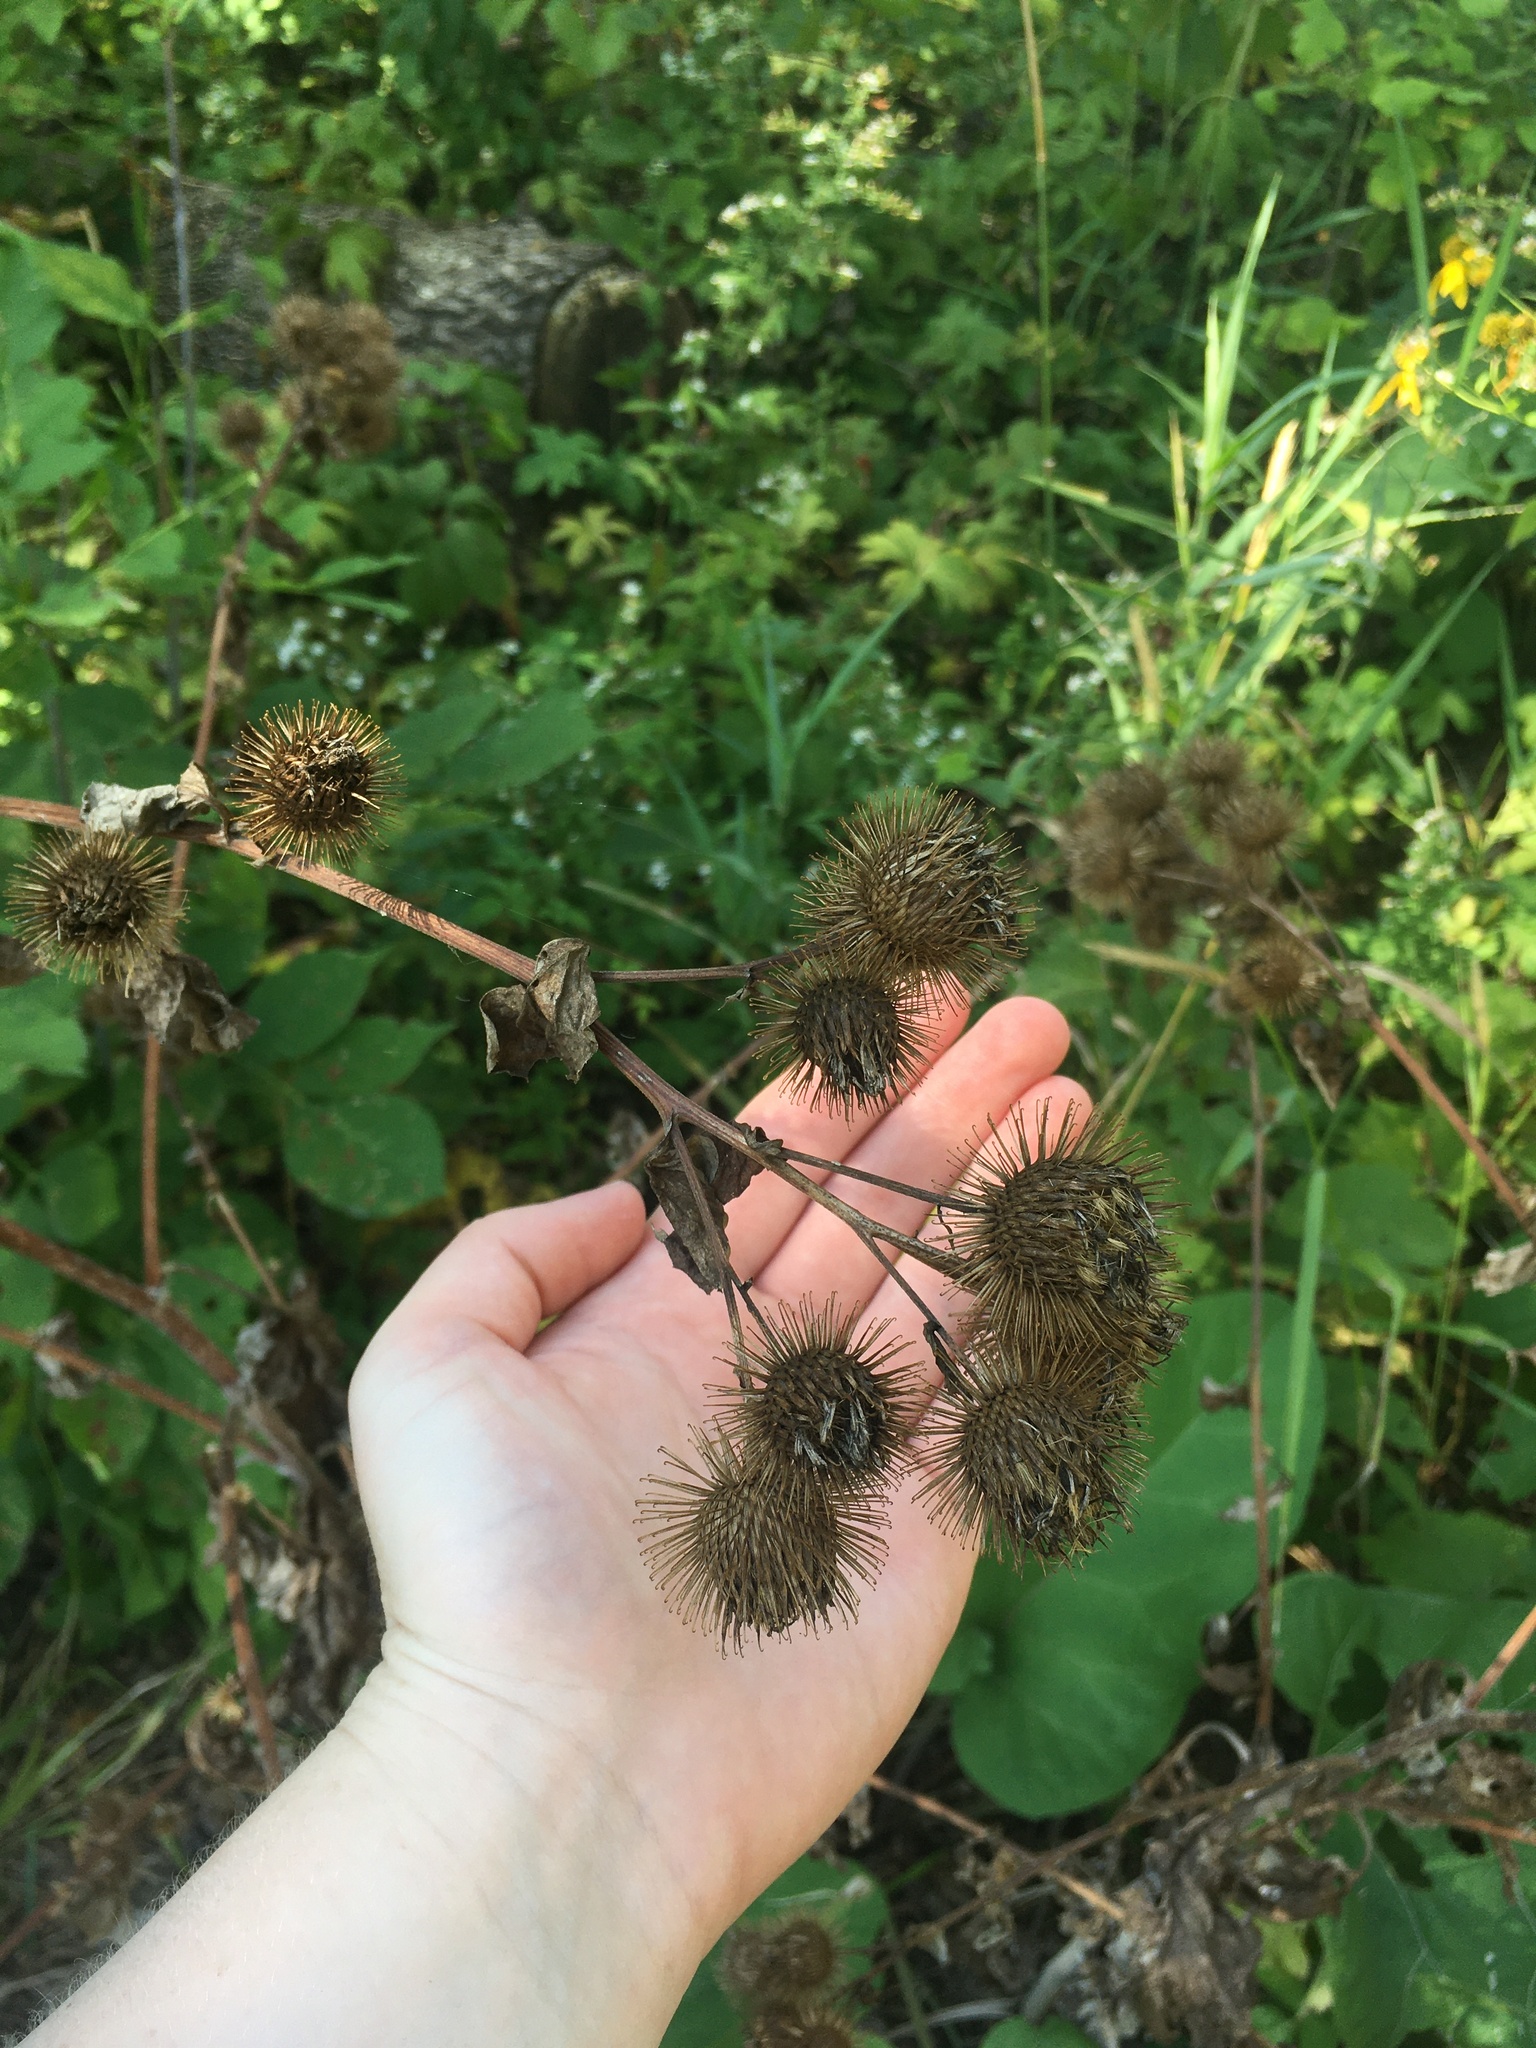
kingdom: Plantae
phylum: Tracheophyta
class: Magnoliopsida
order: Asterales
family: Asteraceae
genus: Arctium
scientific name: Arctium lappa
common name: Greater burdock
